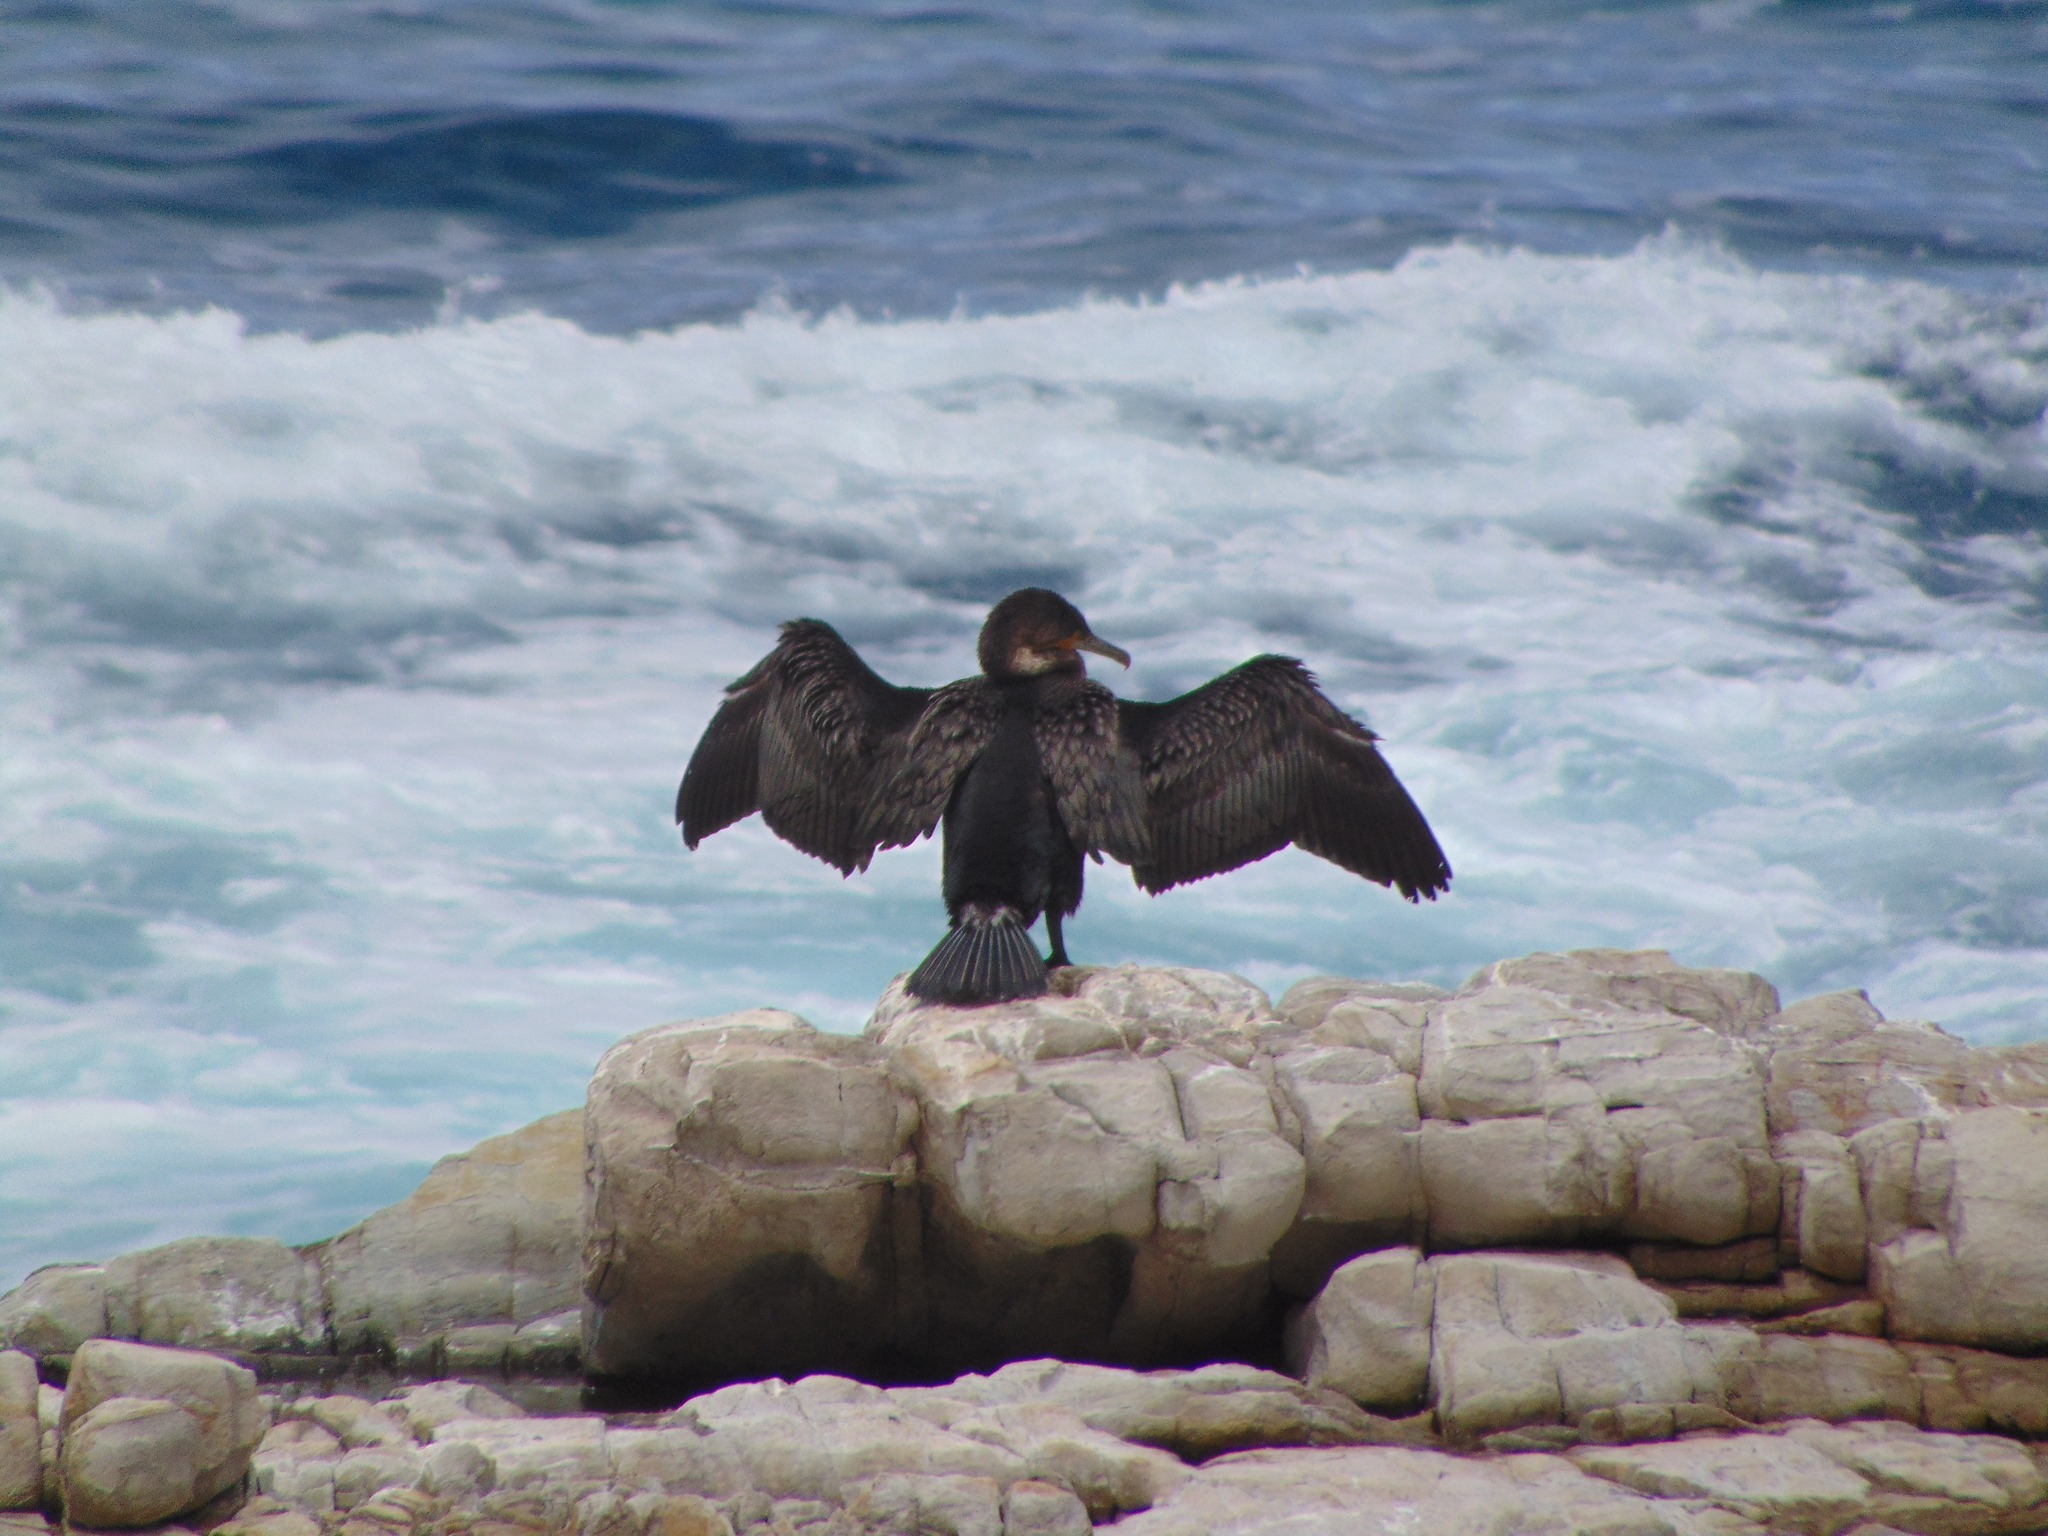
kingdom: Animalia
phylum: Chordata
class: Aves
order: Suliformes
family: Phalacrocoracidae
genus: Phalacrocorax
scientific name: Phalacrocorax carbo
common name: Great cormorant
